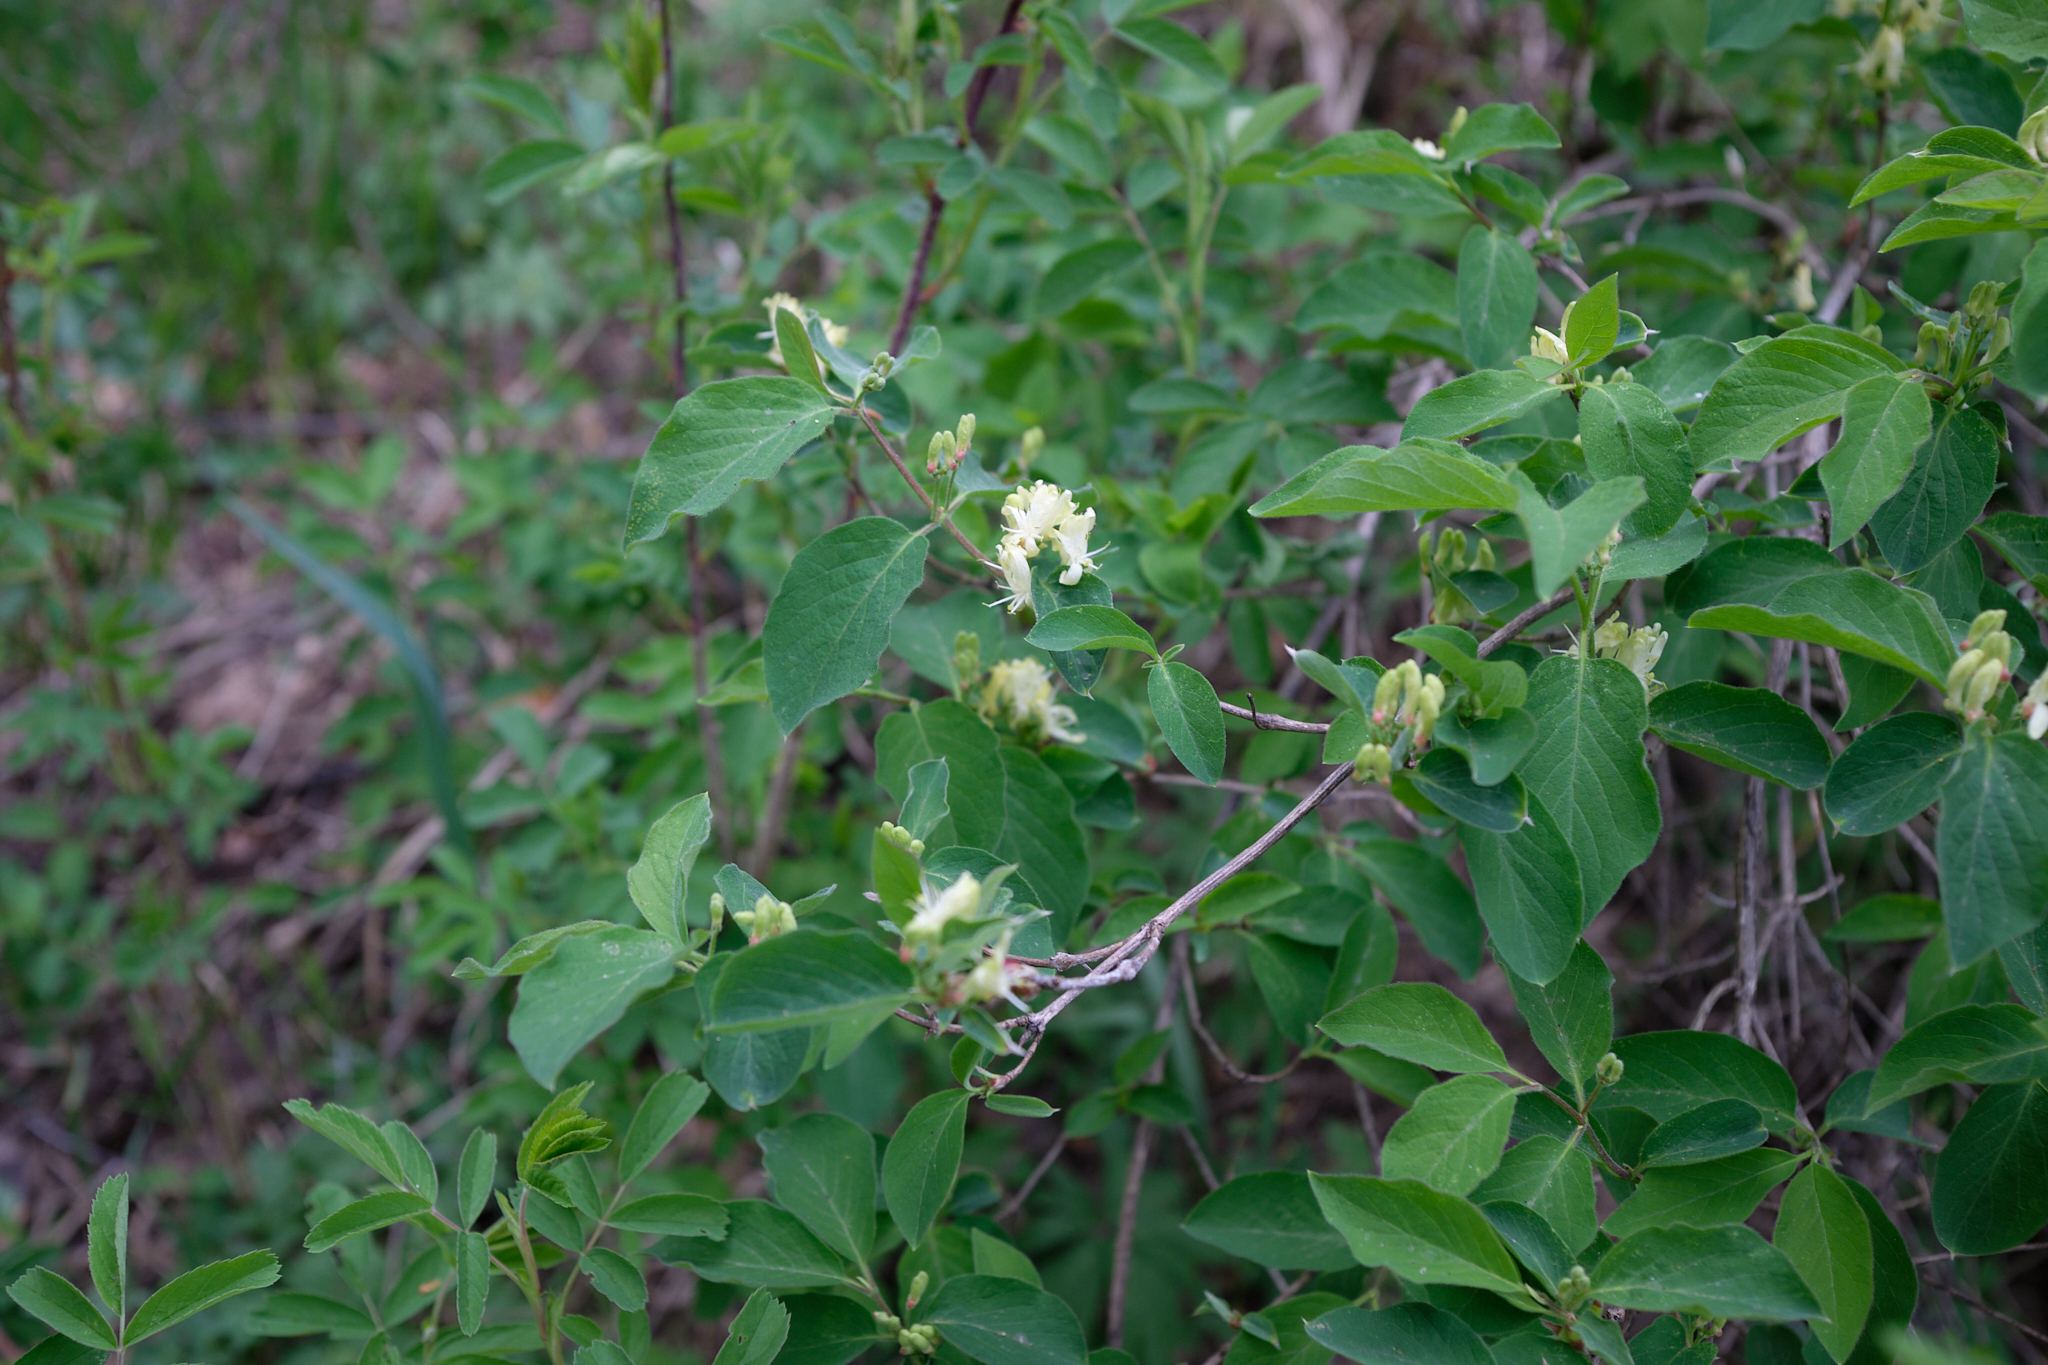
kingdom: Plantae
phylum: Tracheophyta
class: Magnoliopsida
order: Dipsacales
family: Caprifoliaceae
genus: Lonicera
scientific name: Lonicera xylosteum
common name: Fly honeysuckle
